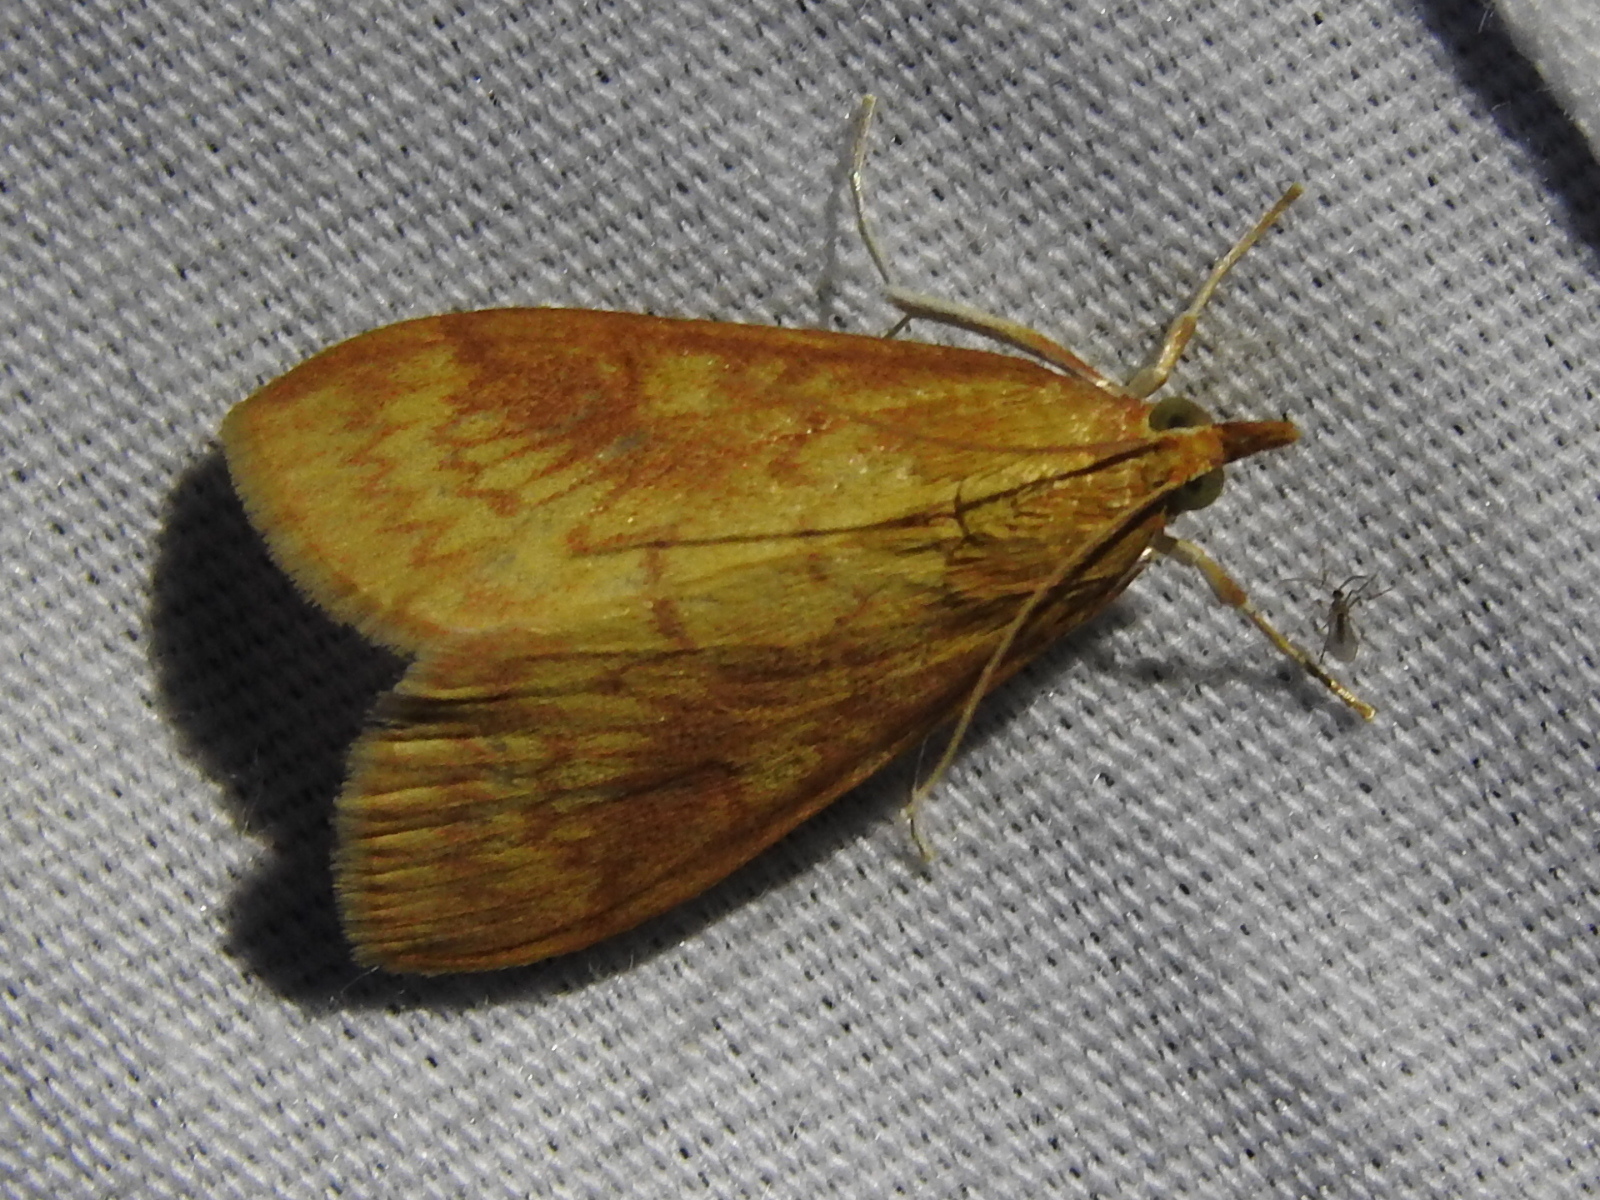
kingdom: Animalia
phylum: Arthropoda
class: Insecta
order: Lepidoptera
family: Crambidae
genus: Ostrinia
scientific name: Ostrinia penitalis
